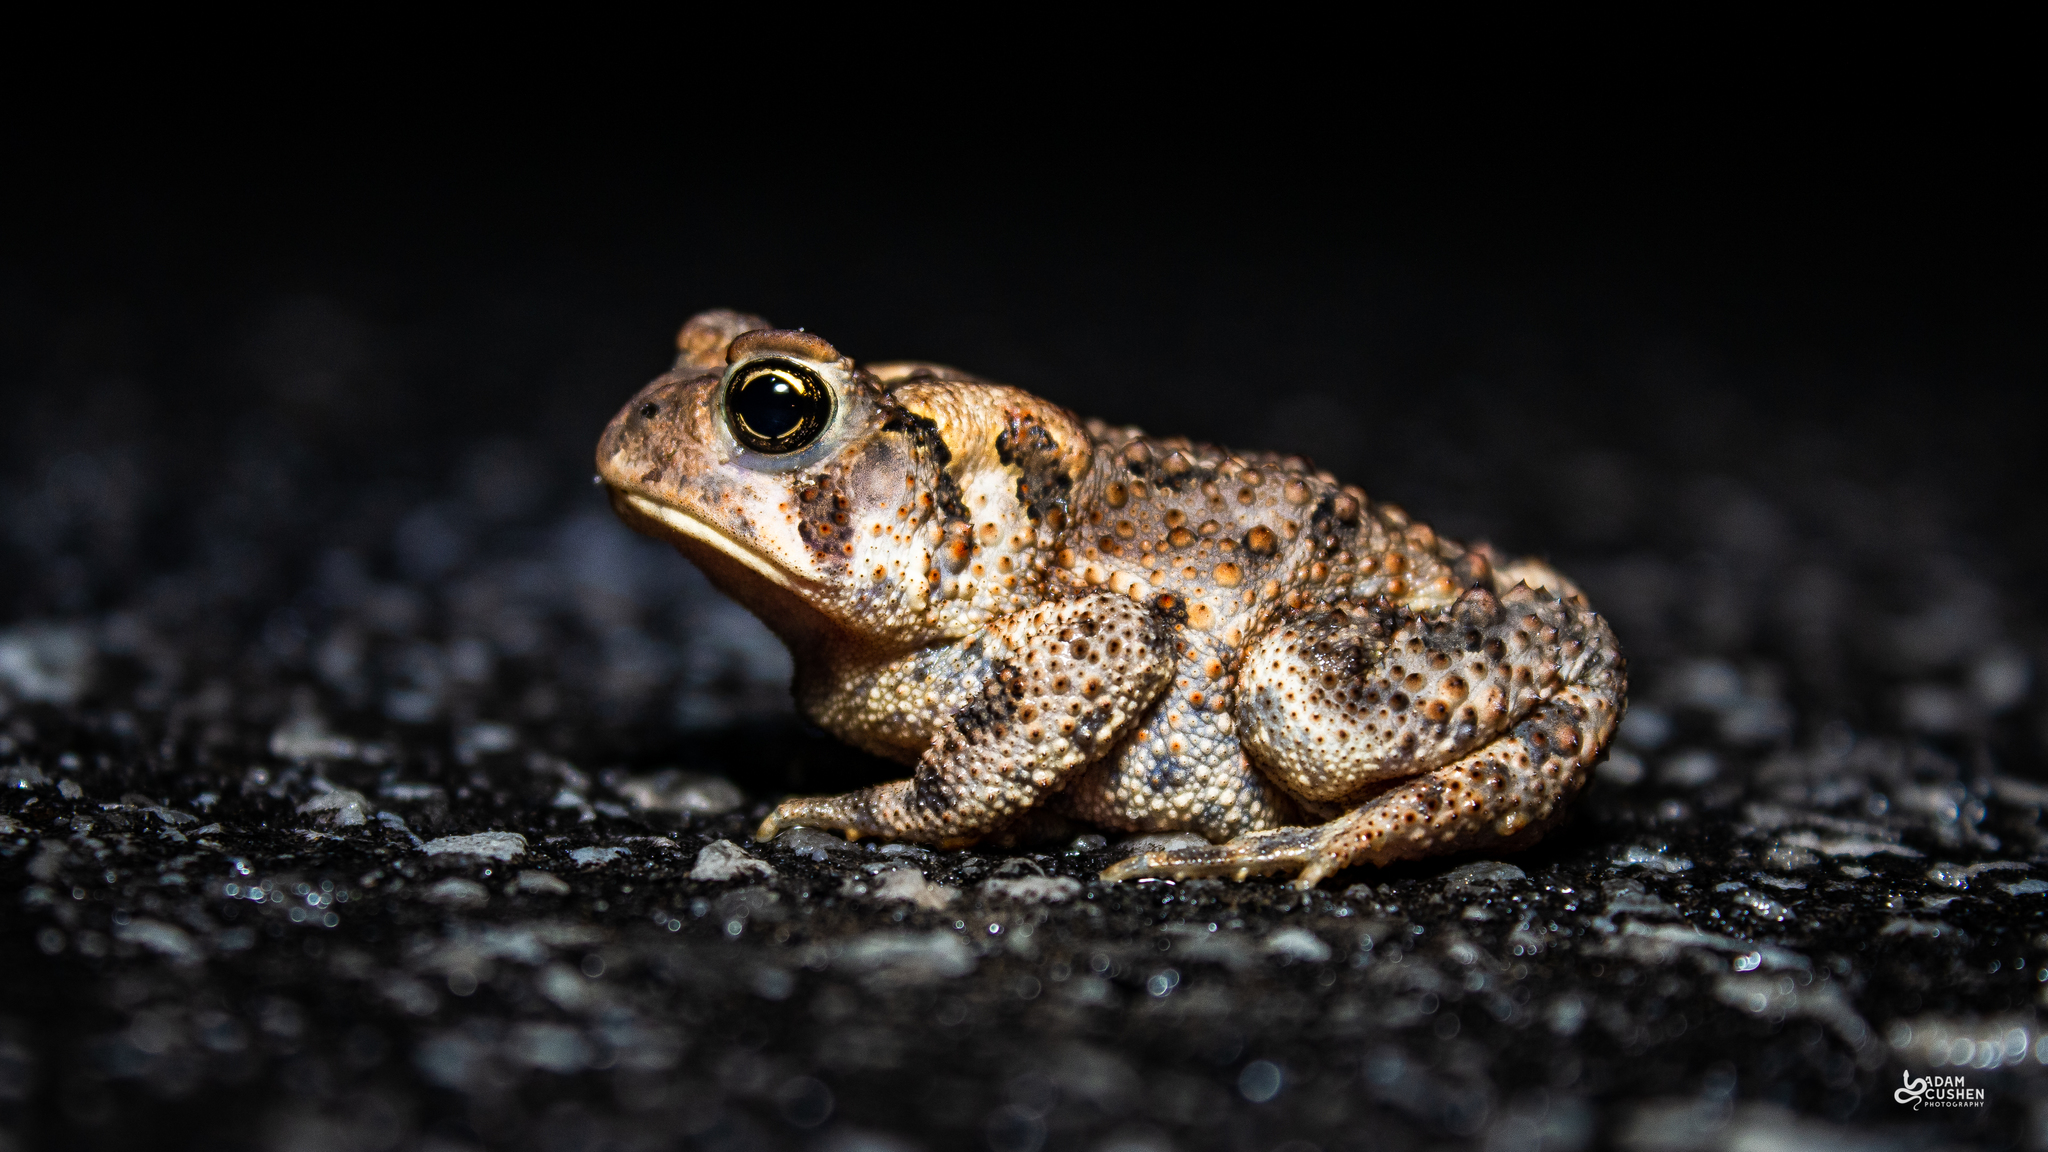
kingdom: Animalia
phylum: Chordata
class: Amphibia
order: Anura
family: Bufonidae
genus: Anaxyrus
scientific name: Anaxyrus americanus
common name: American toad
